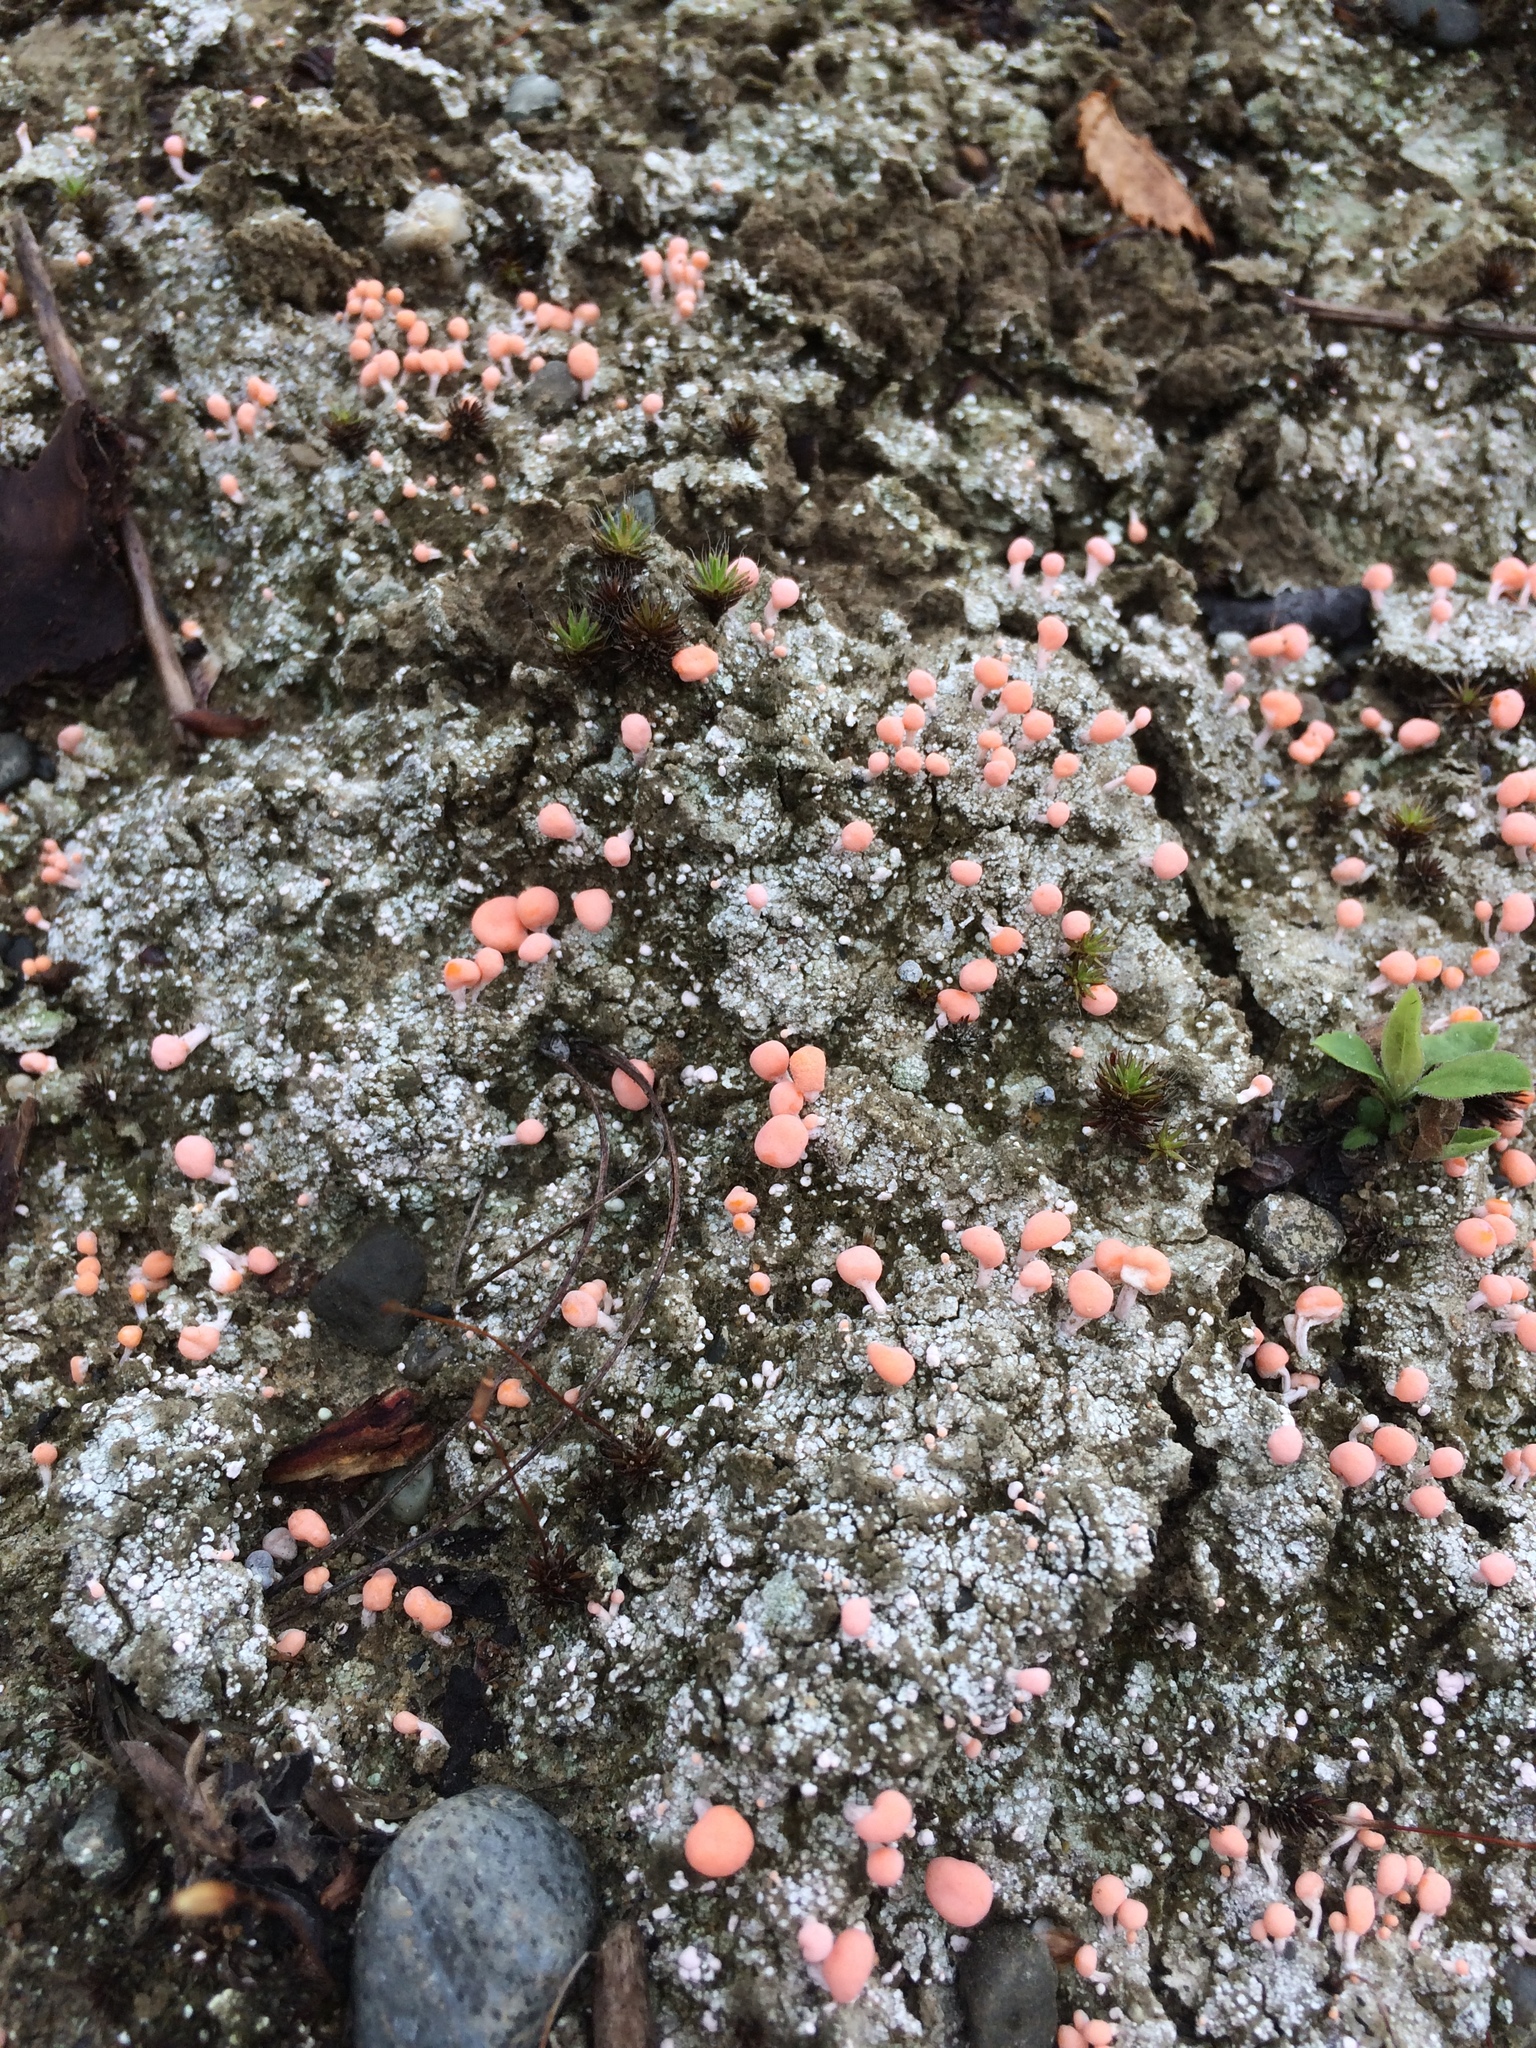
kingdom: Fungi
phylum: Ascomycota
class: Lecanoromycetes
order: Pertusariales
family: Icmadophilaceae
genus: Dibaeis
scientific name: Dibaeis baeomyces
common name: Pink earth lichen
